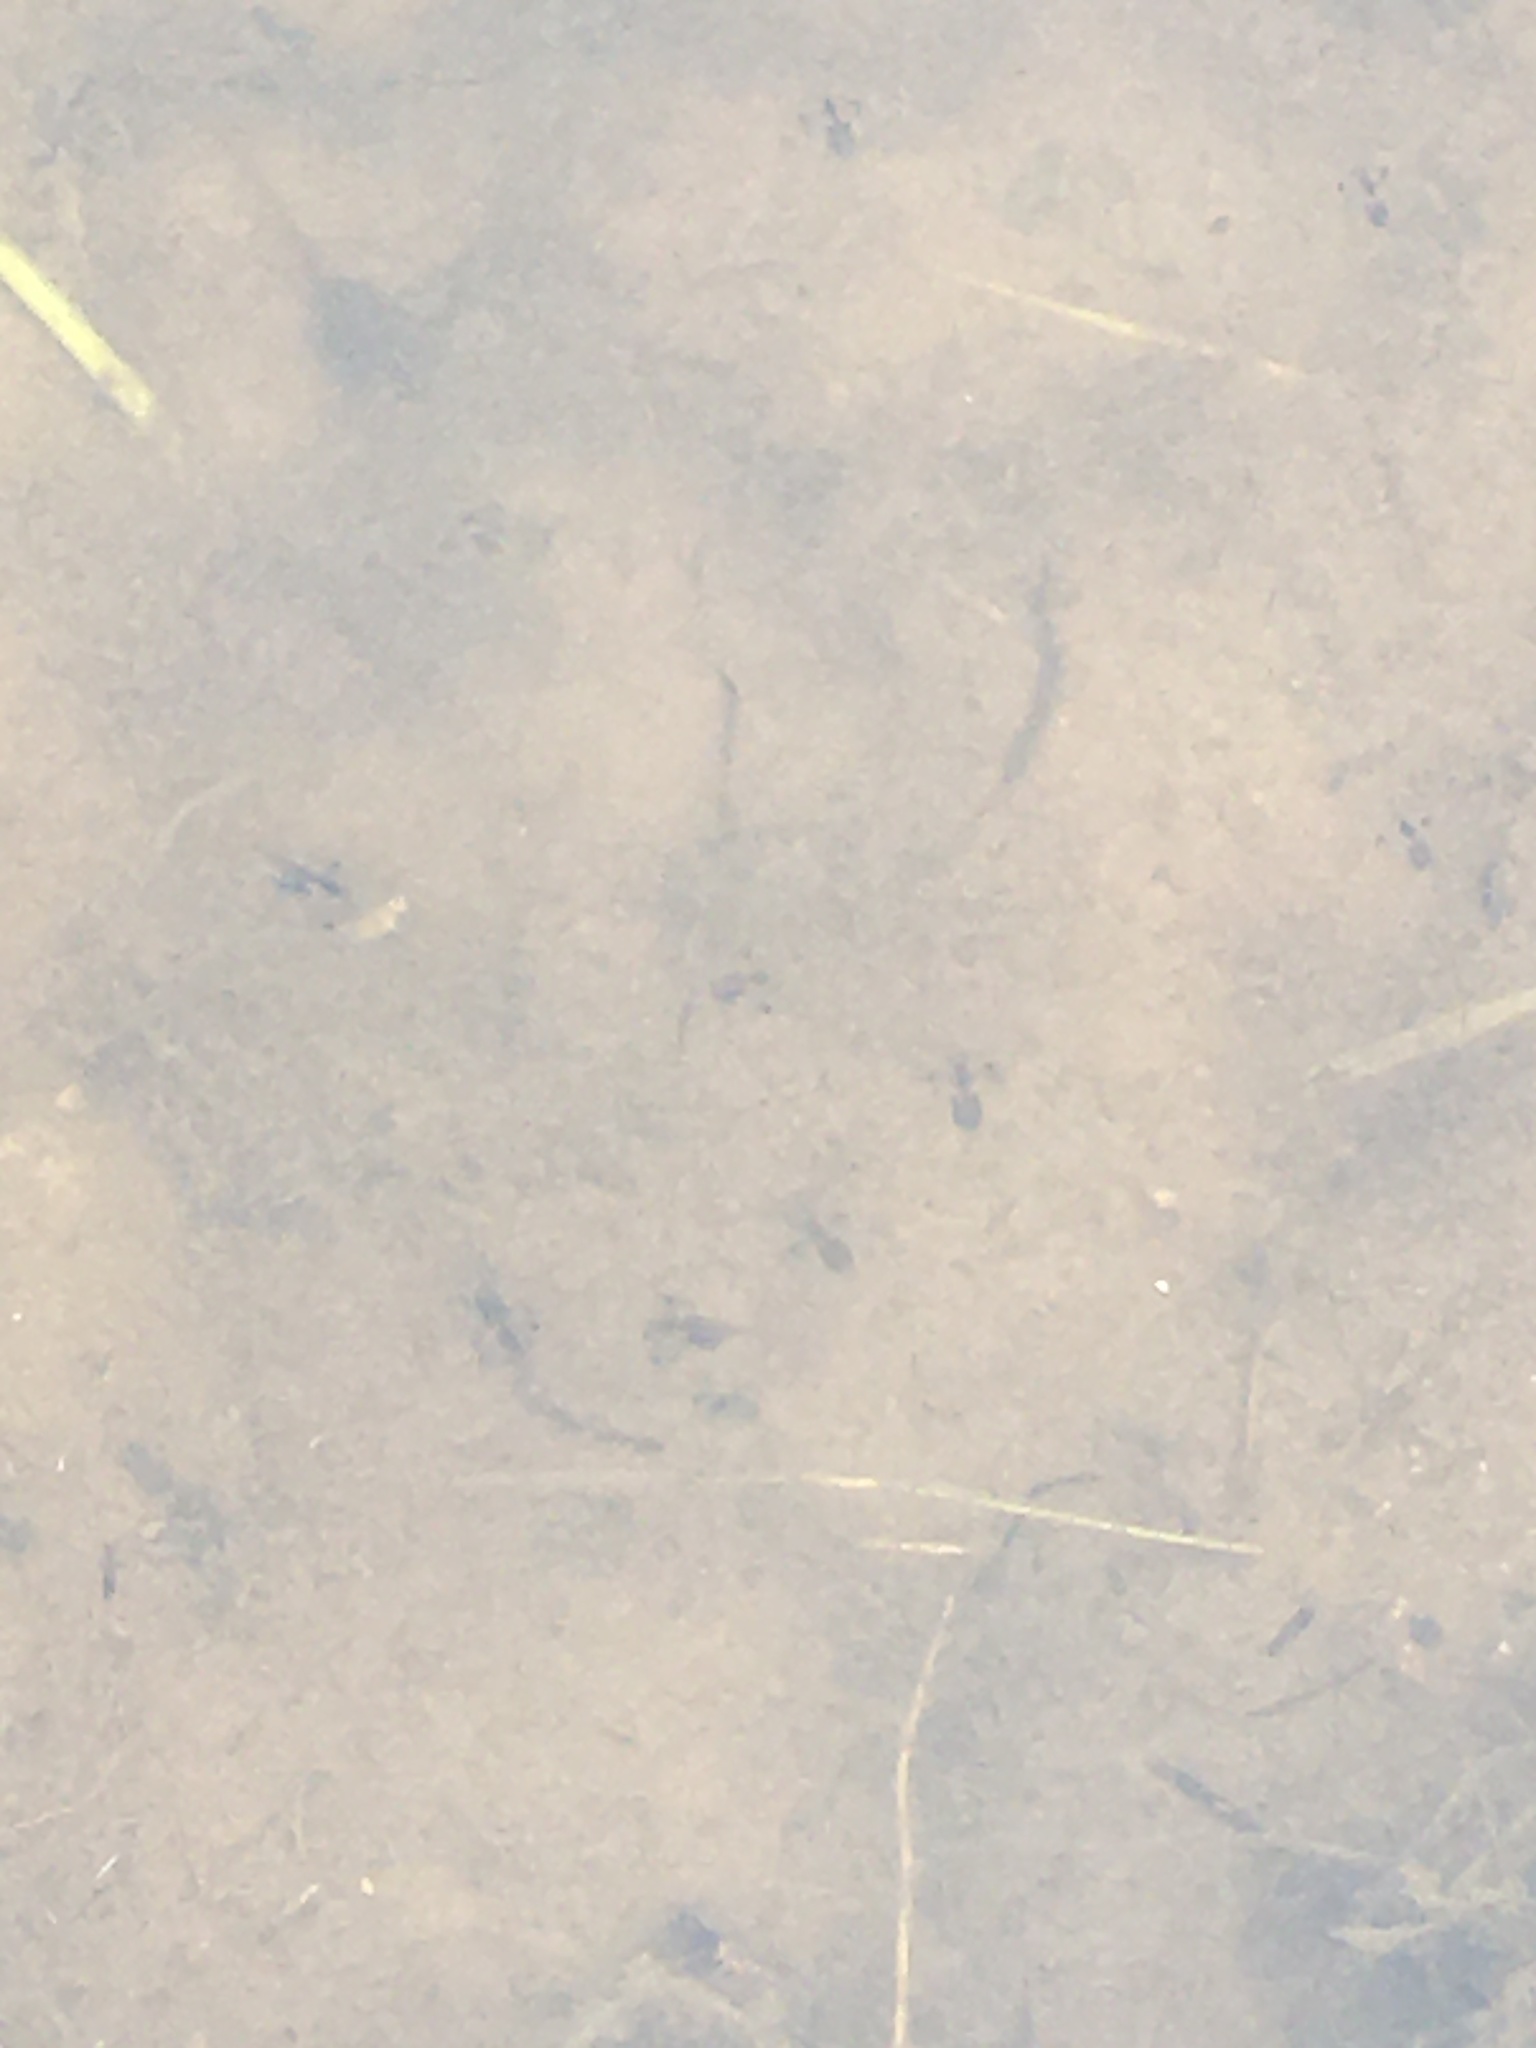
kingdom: Animalia
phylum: Chordata
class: Amphibia
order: Anura
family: Pipidae
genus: Xenopus
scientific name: Xenopus laevis
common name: African clawed frog
